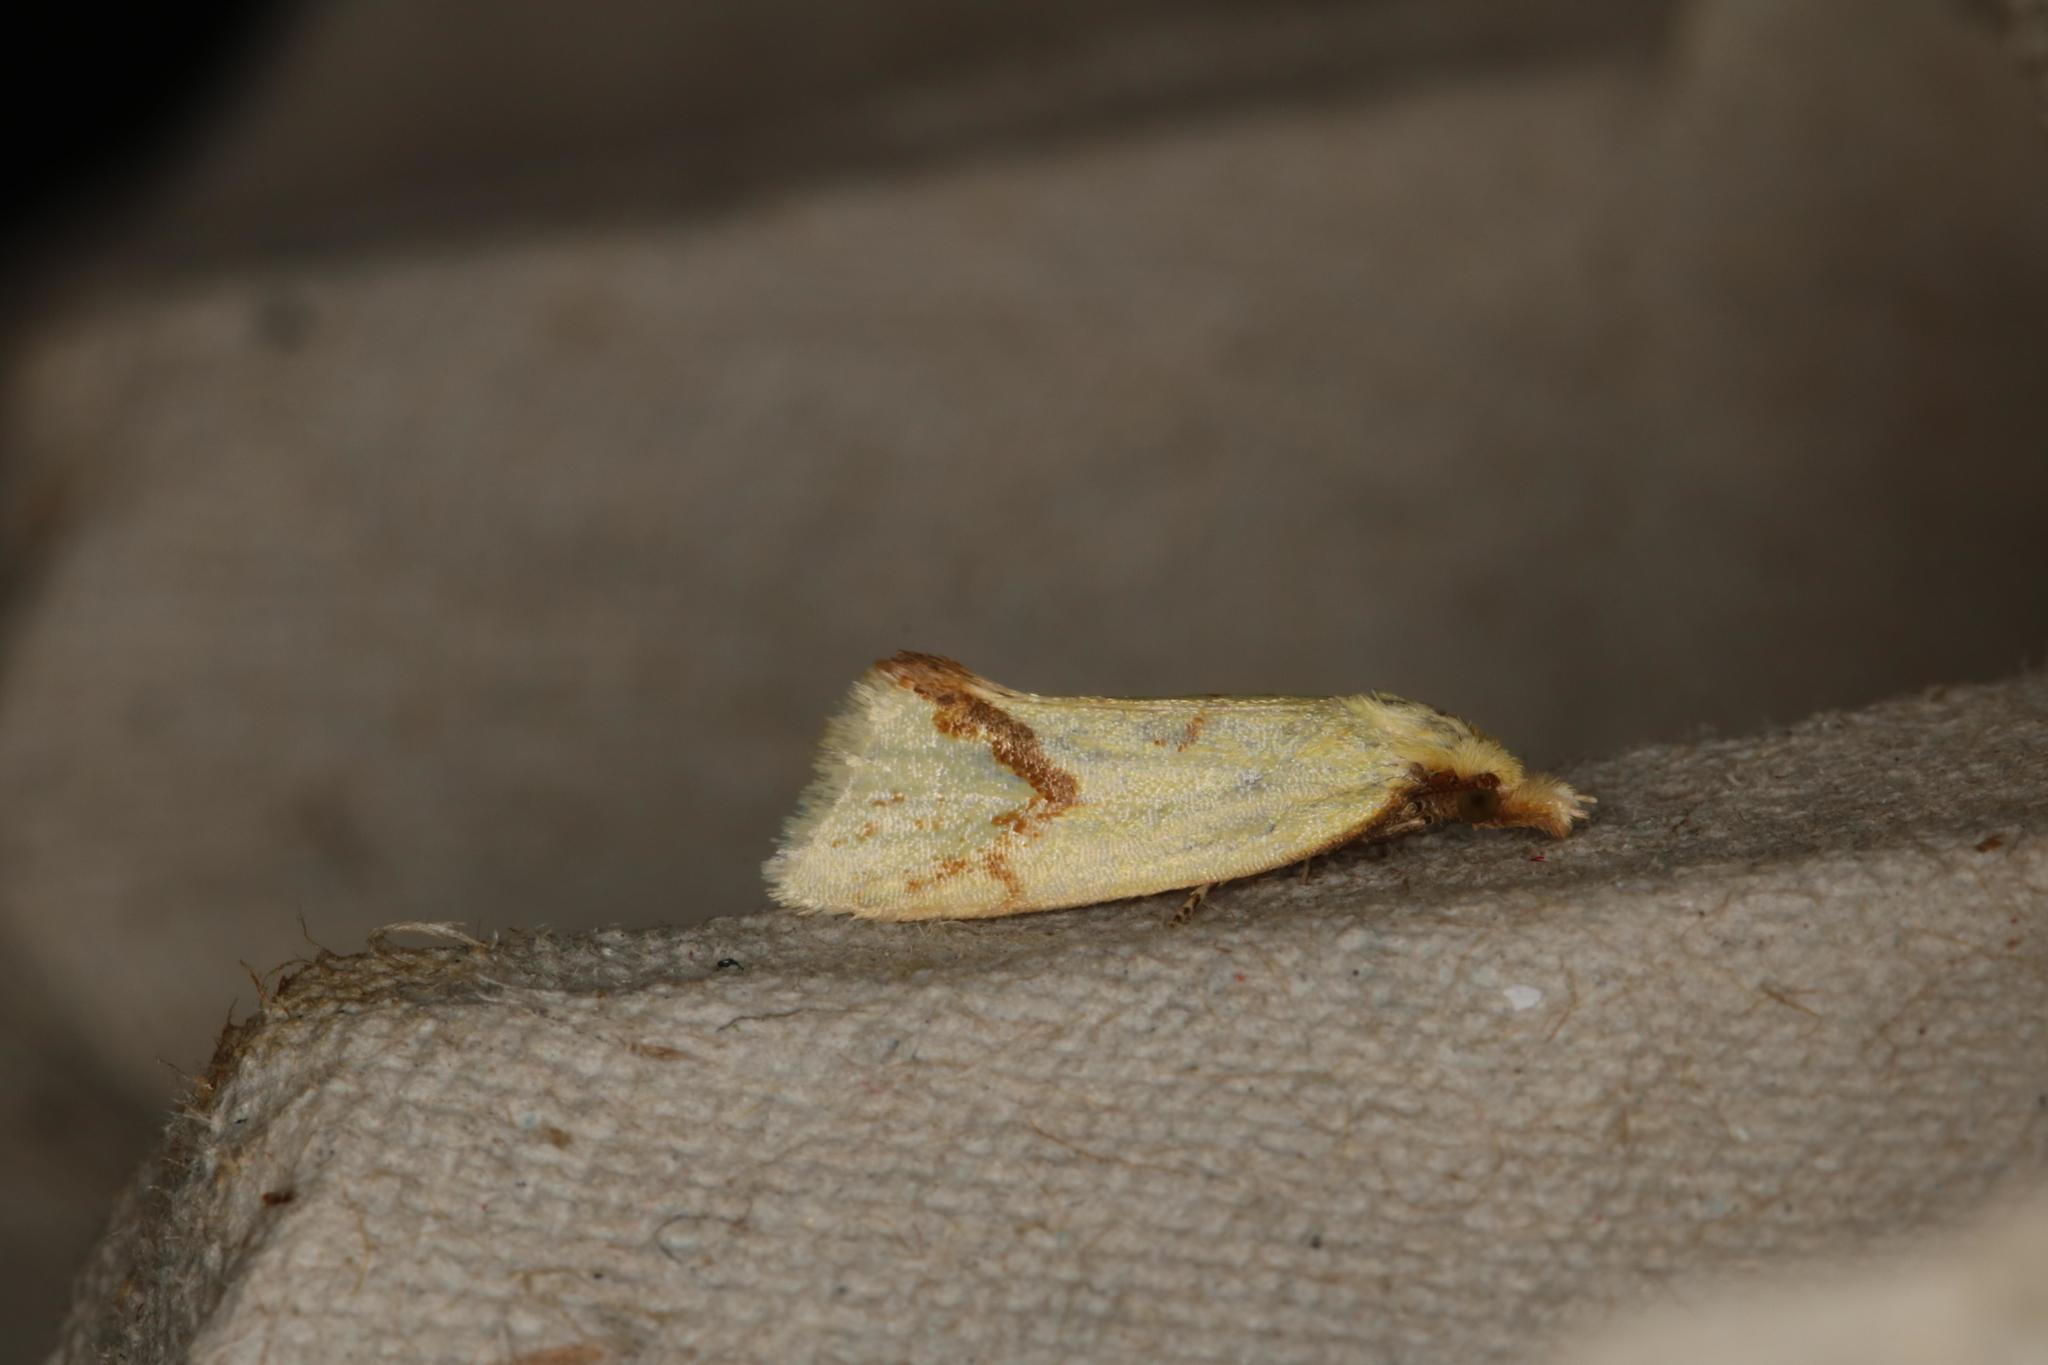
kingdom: Animalia
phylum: Arthropoda
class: Insecta
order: Lepidoptera
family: Tortricidae
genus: Agapeta
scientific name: Agapeta hamana
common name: Common yellow conch
